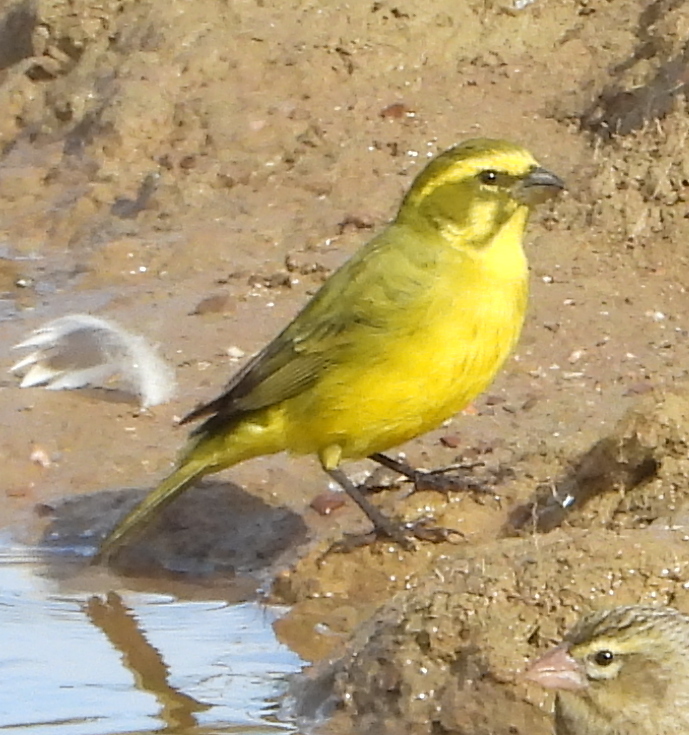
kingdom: Animalia
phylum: Chordata
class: Aves
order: Passeriformes
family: Fringillidae
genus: Crithagra
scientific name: Crithagra flaviventris
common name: Yellow canary
